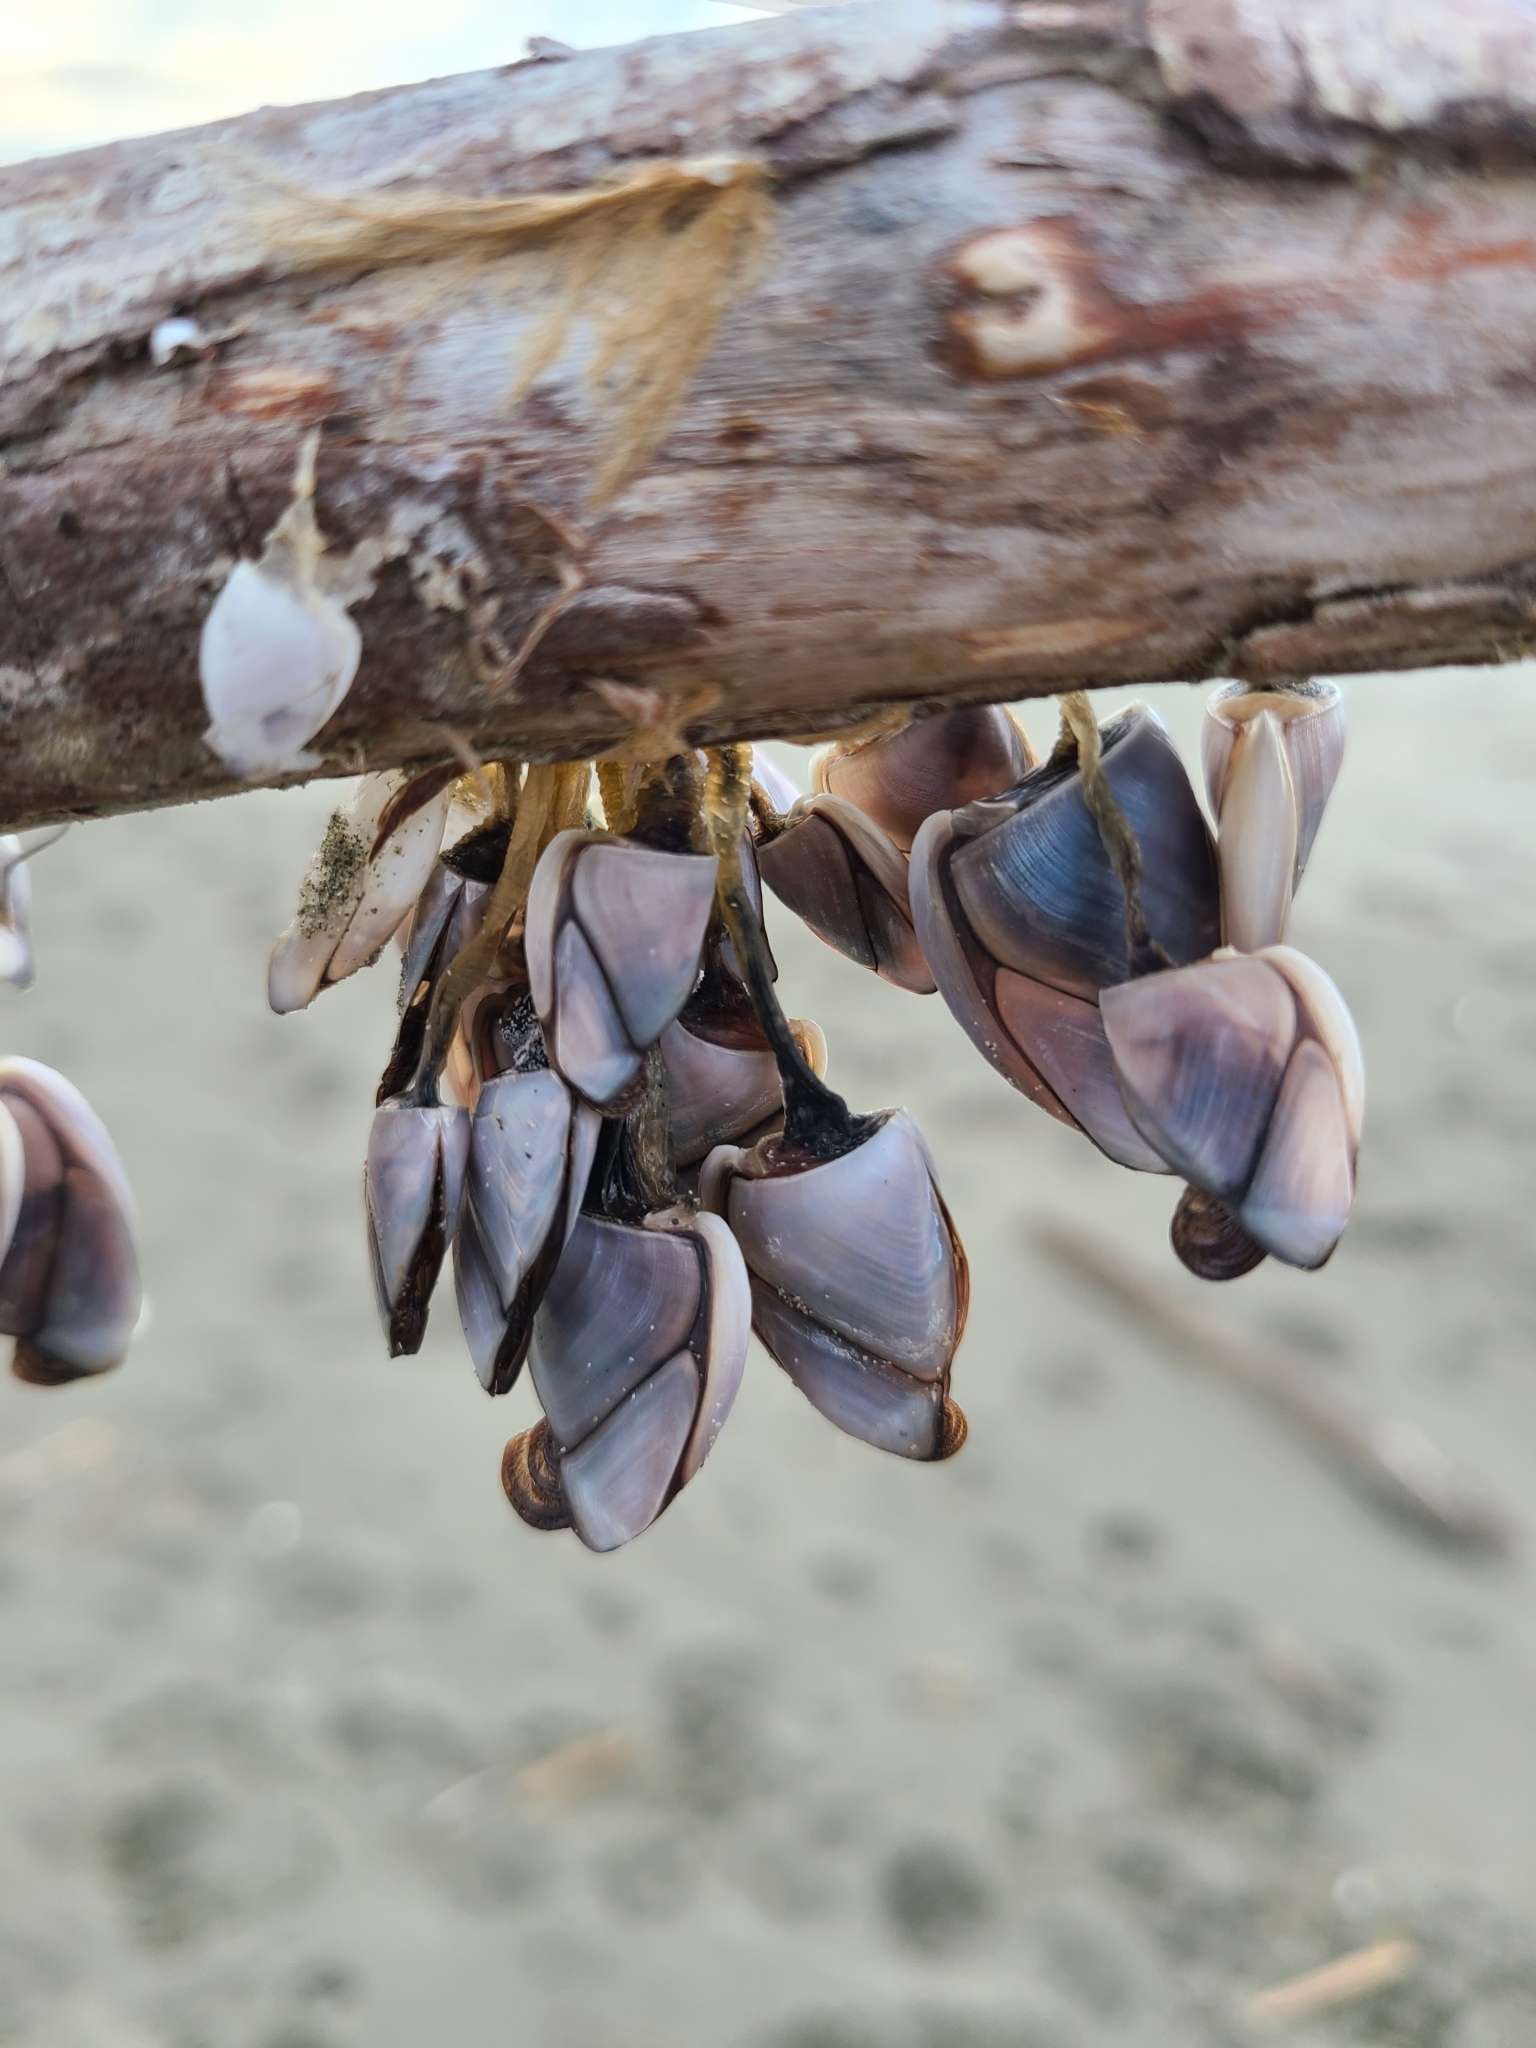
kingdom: Animalia
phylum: Arthropoda
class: Maxillopoda
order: Pedunculata
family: Lepadidae
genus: Lepas
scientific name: Lepas anatifera
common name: Common goose barnacle
